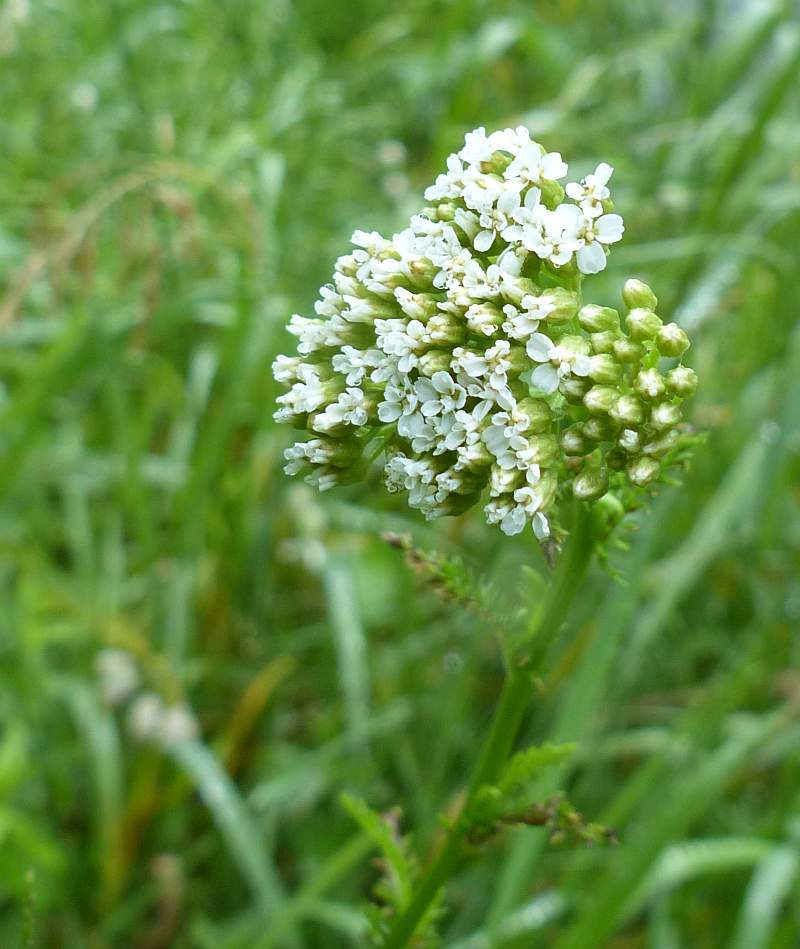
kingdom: Plantae
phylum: Tracheophyta
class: Magnoliopsida
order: Asterales
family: Asteraceae
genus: Achillea
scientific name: Achillea millefolium
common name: Yarrow
